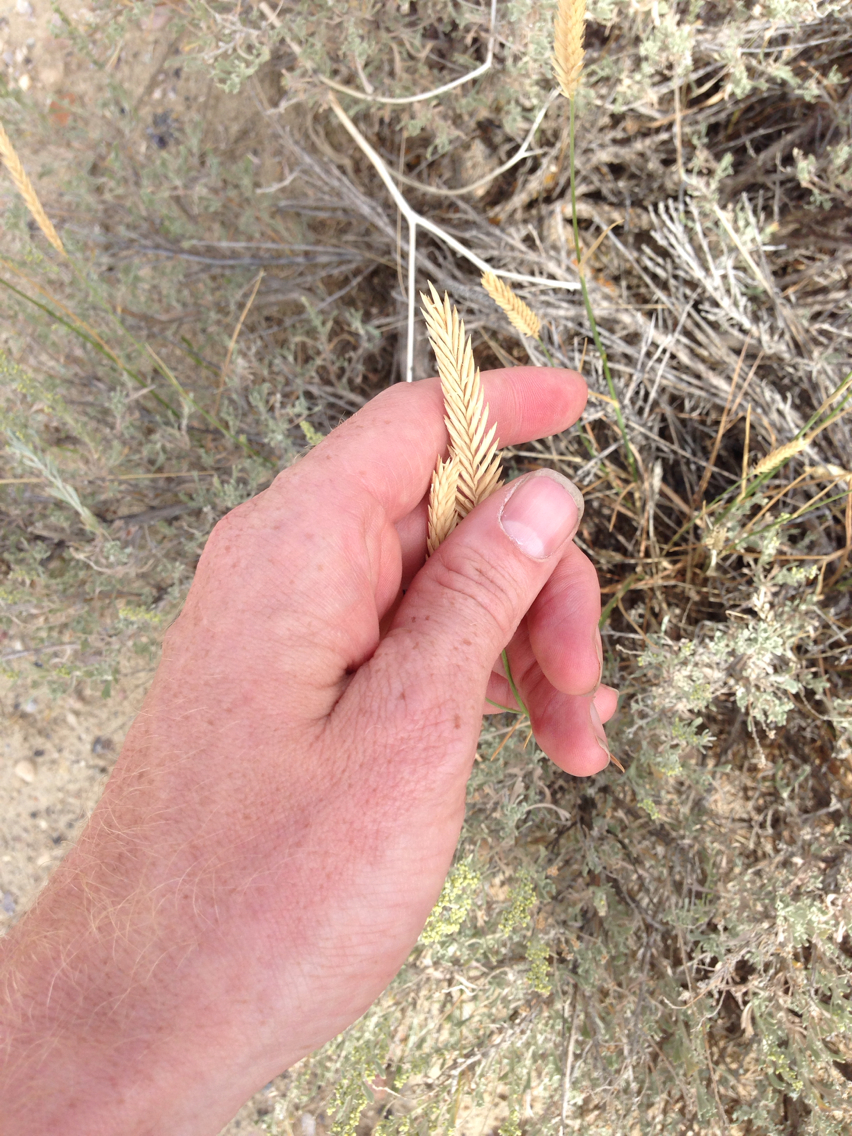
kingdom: Plantae
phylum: Tracheophyta
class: Liliopsida
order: Poales
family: Poaceae
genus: Agropyron
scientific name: Agropyron cristatum
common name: Crested wheatgrass
